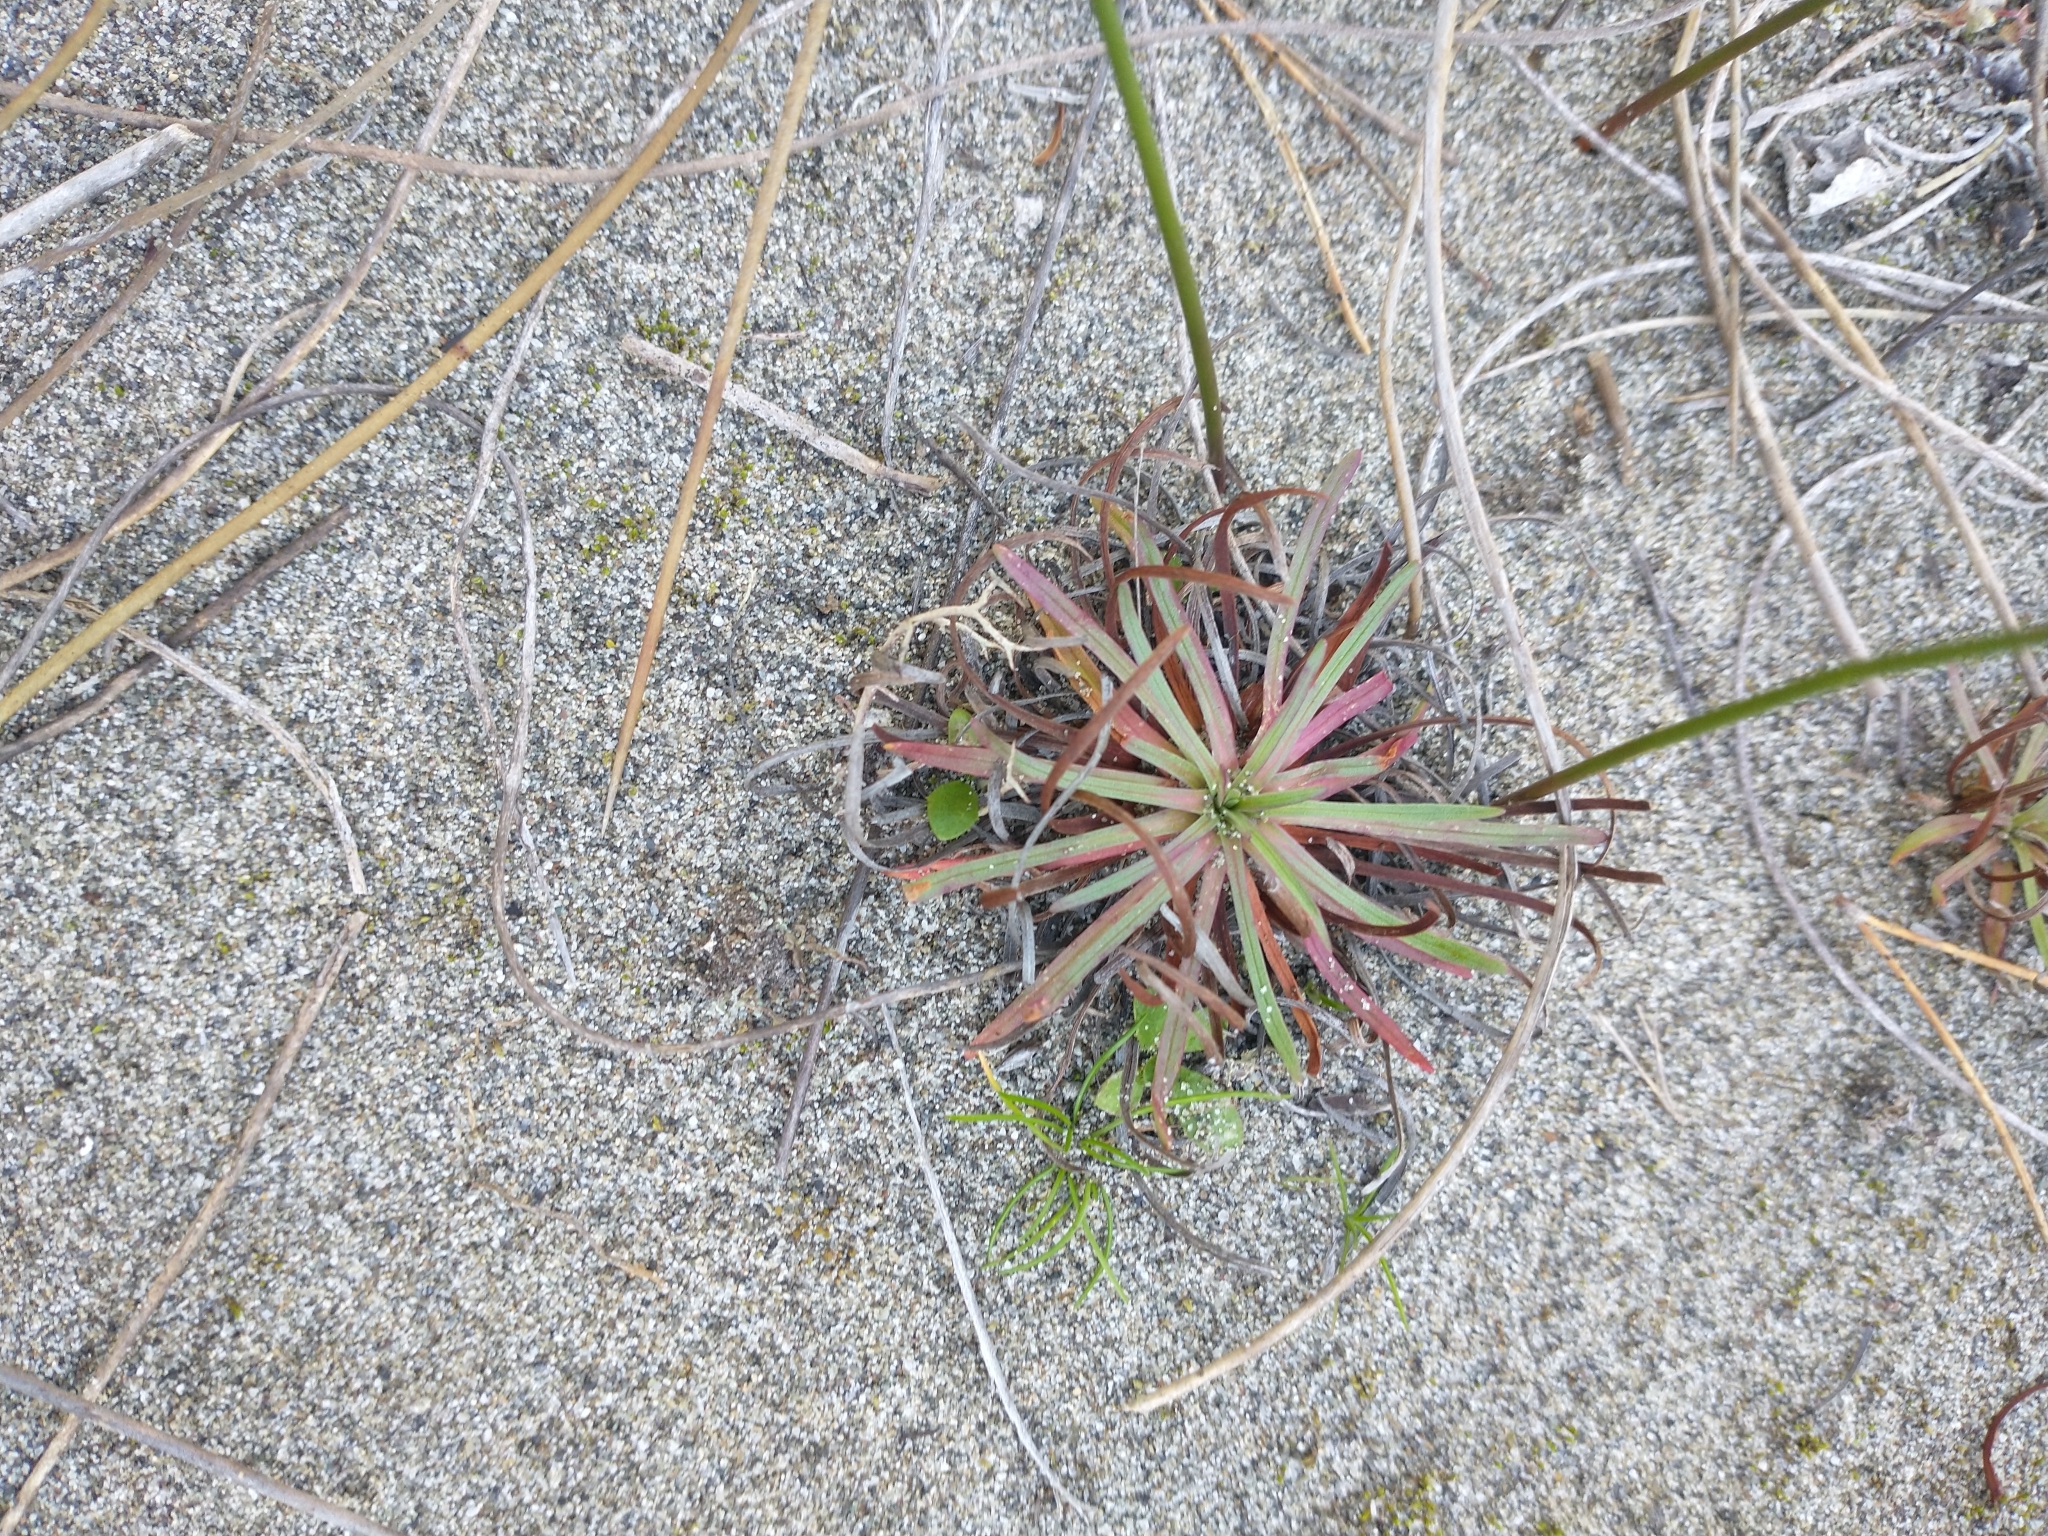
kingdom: Plantae
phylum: Tracheophyta
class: Magnoliopsida
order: Caryophyllales
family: Plumbaginaceae
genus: Armeria
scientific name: Armeria maritima
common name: Thrift
